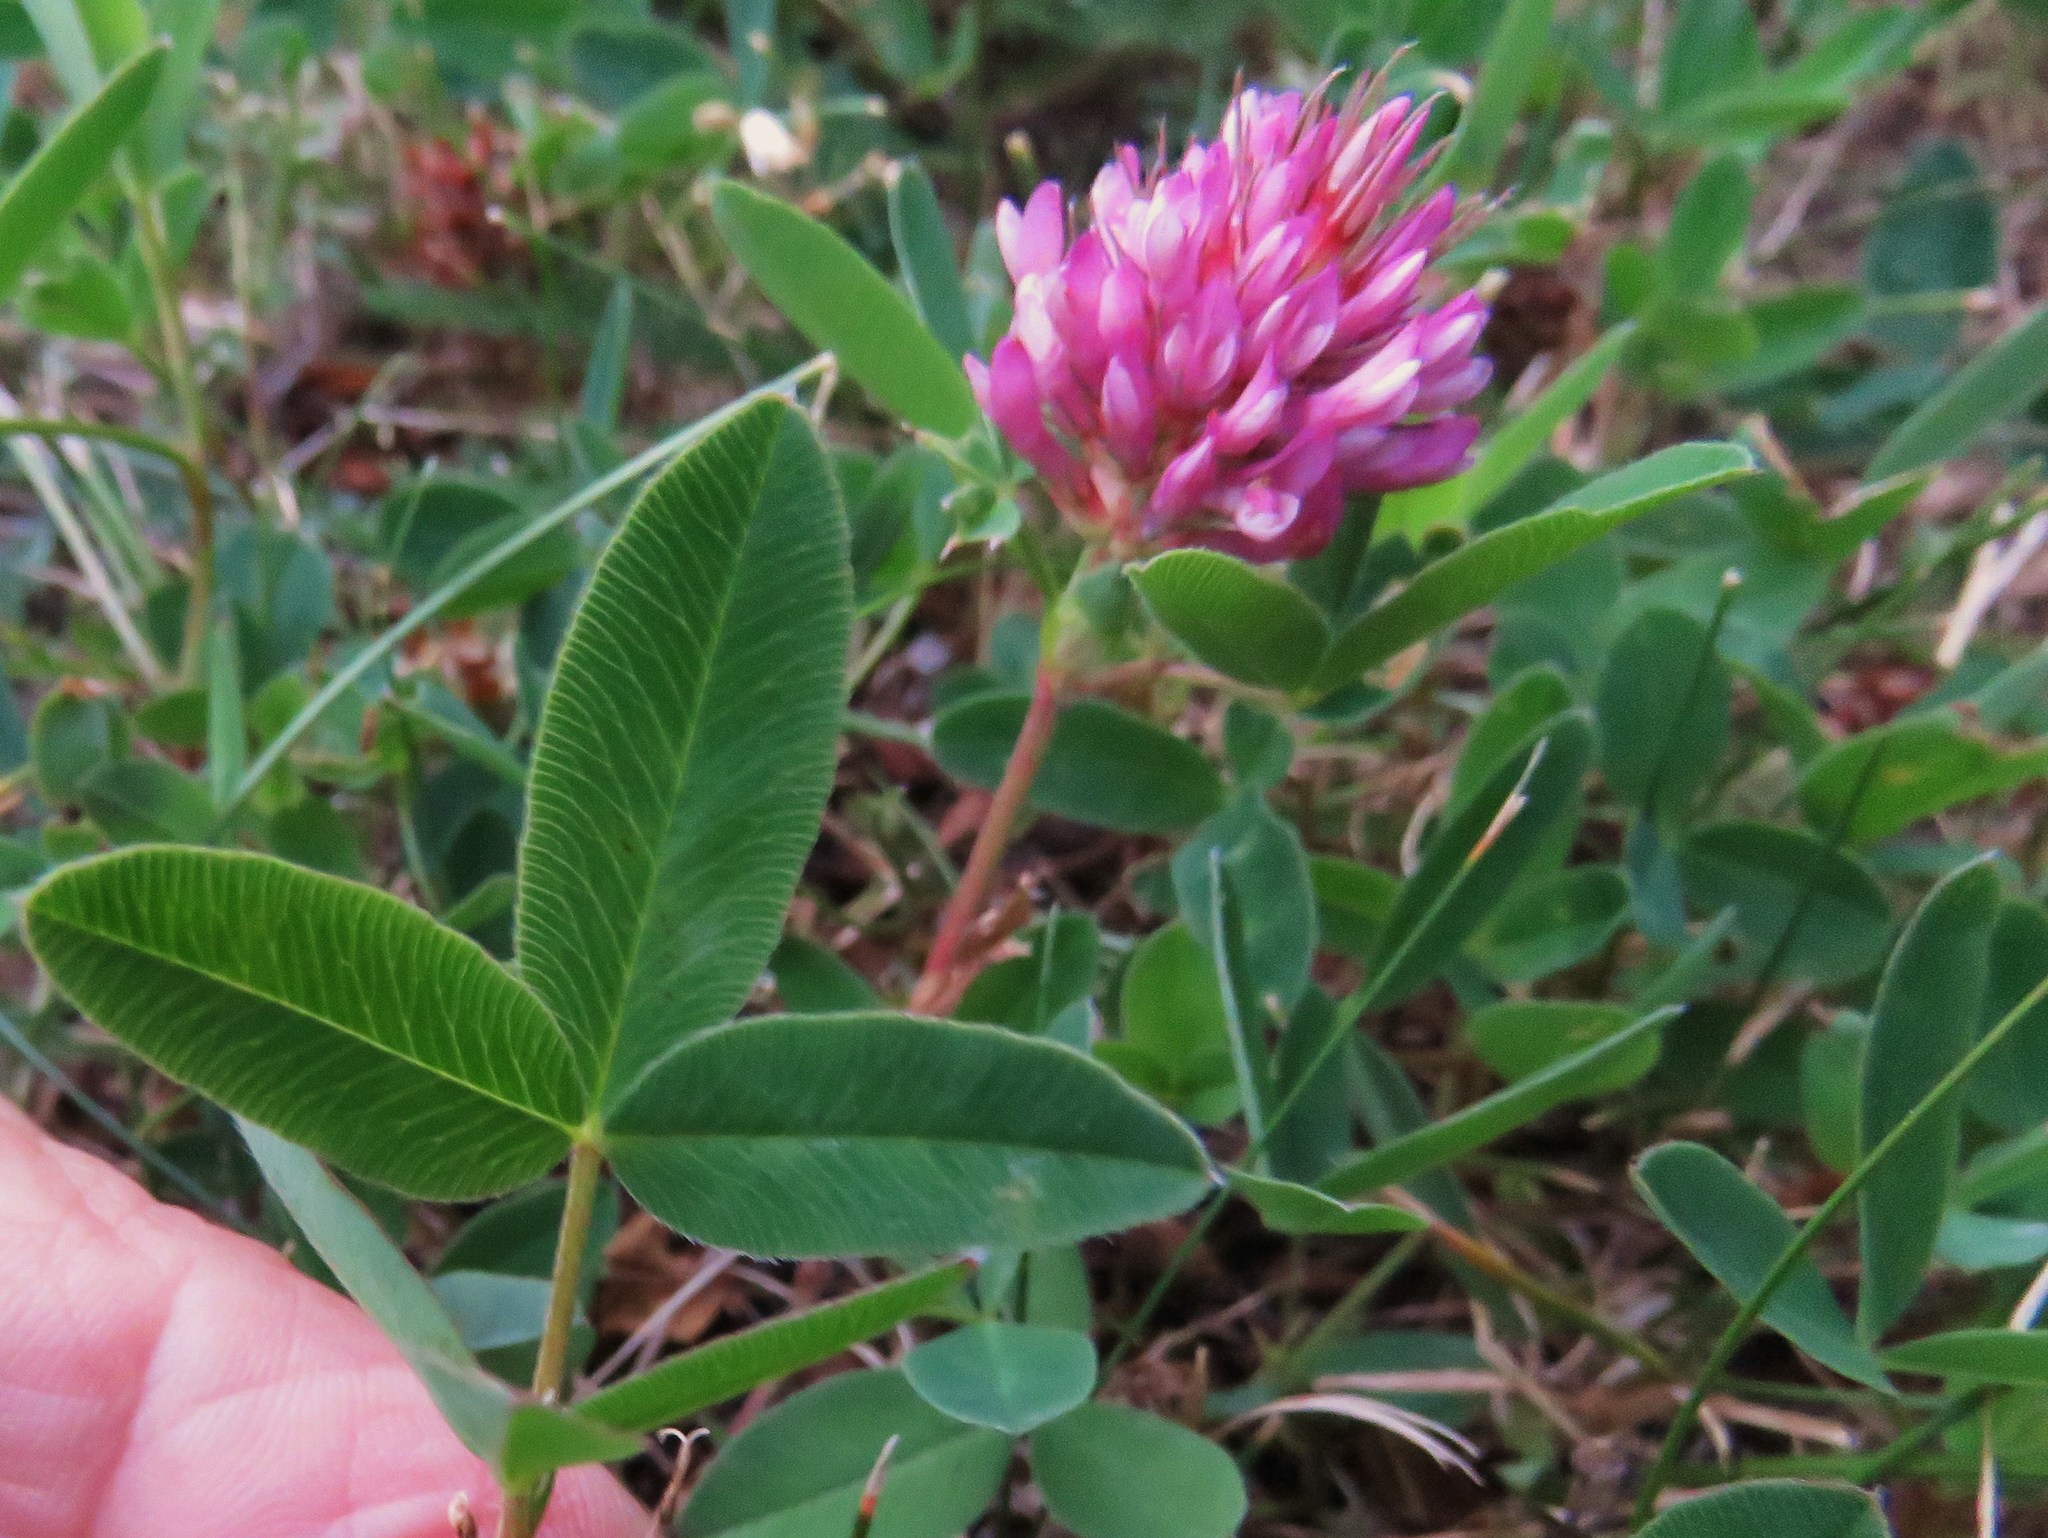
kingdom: Plantae
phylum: Tracheophyta
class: Magnoliopsida
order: Fabales
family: Fabaceae
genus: Trifolium
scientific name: Trifolium medium
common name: Zigzag clover
